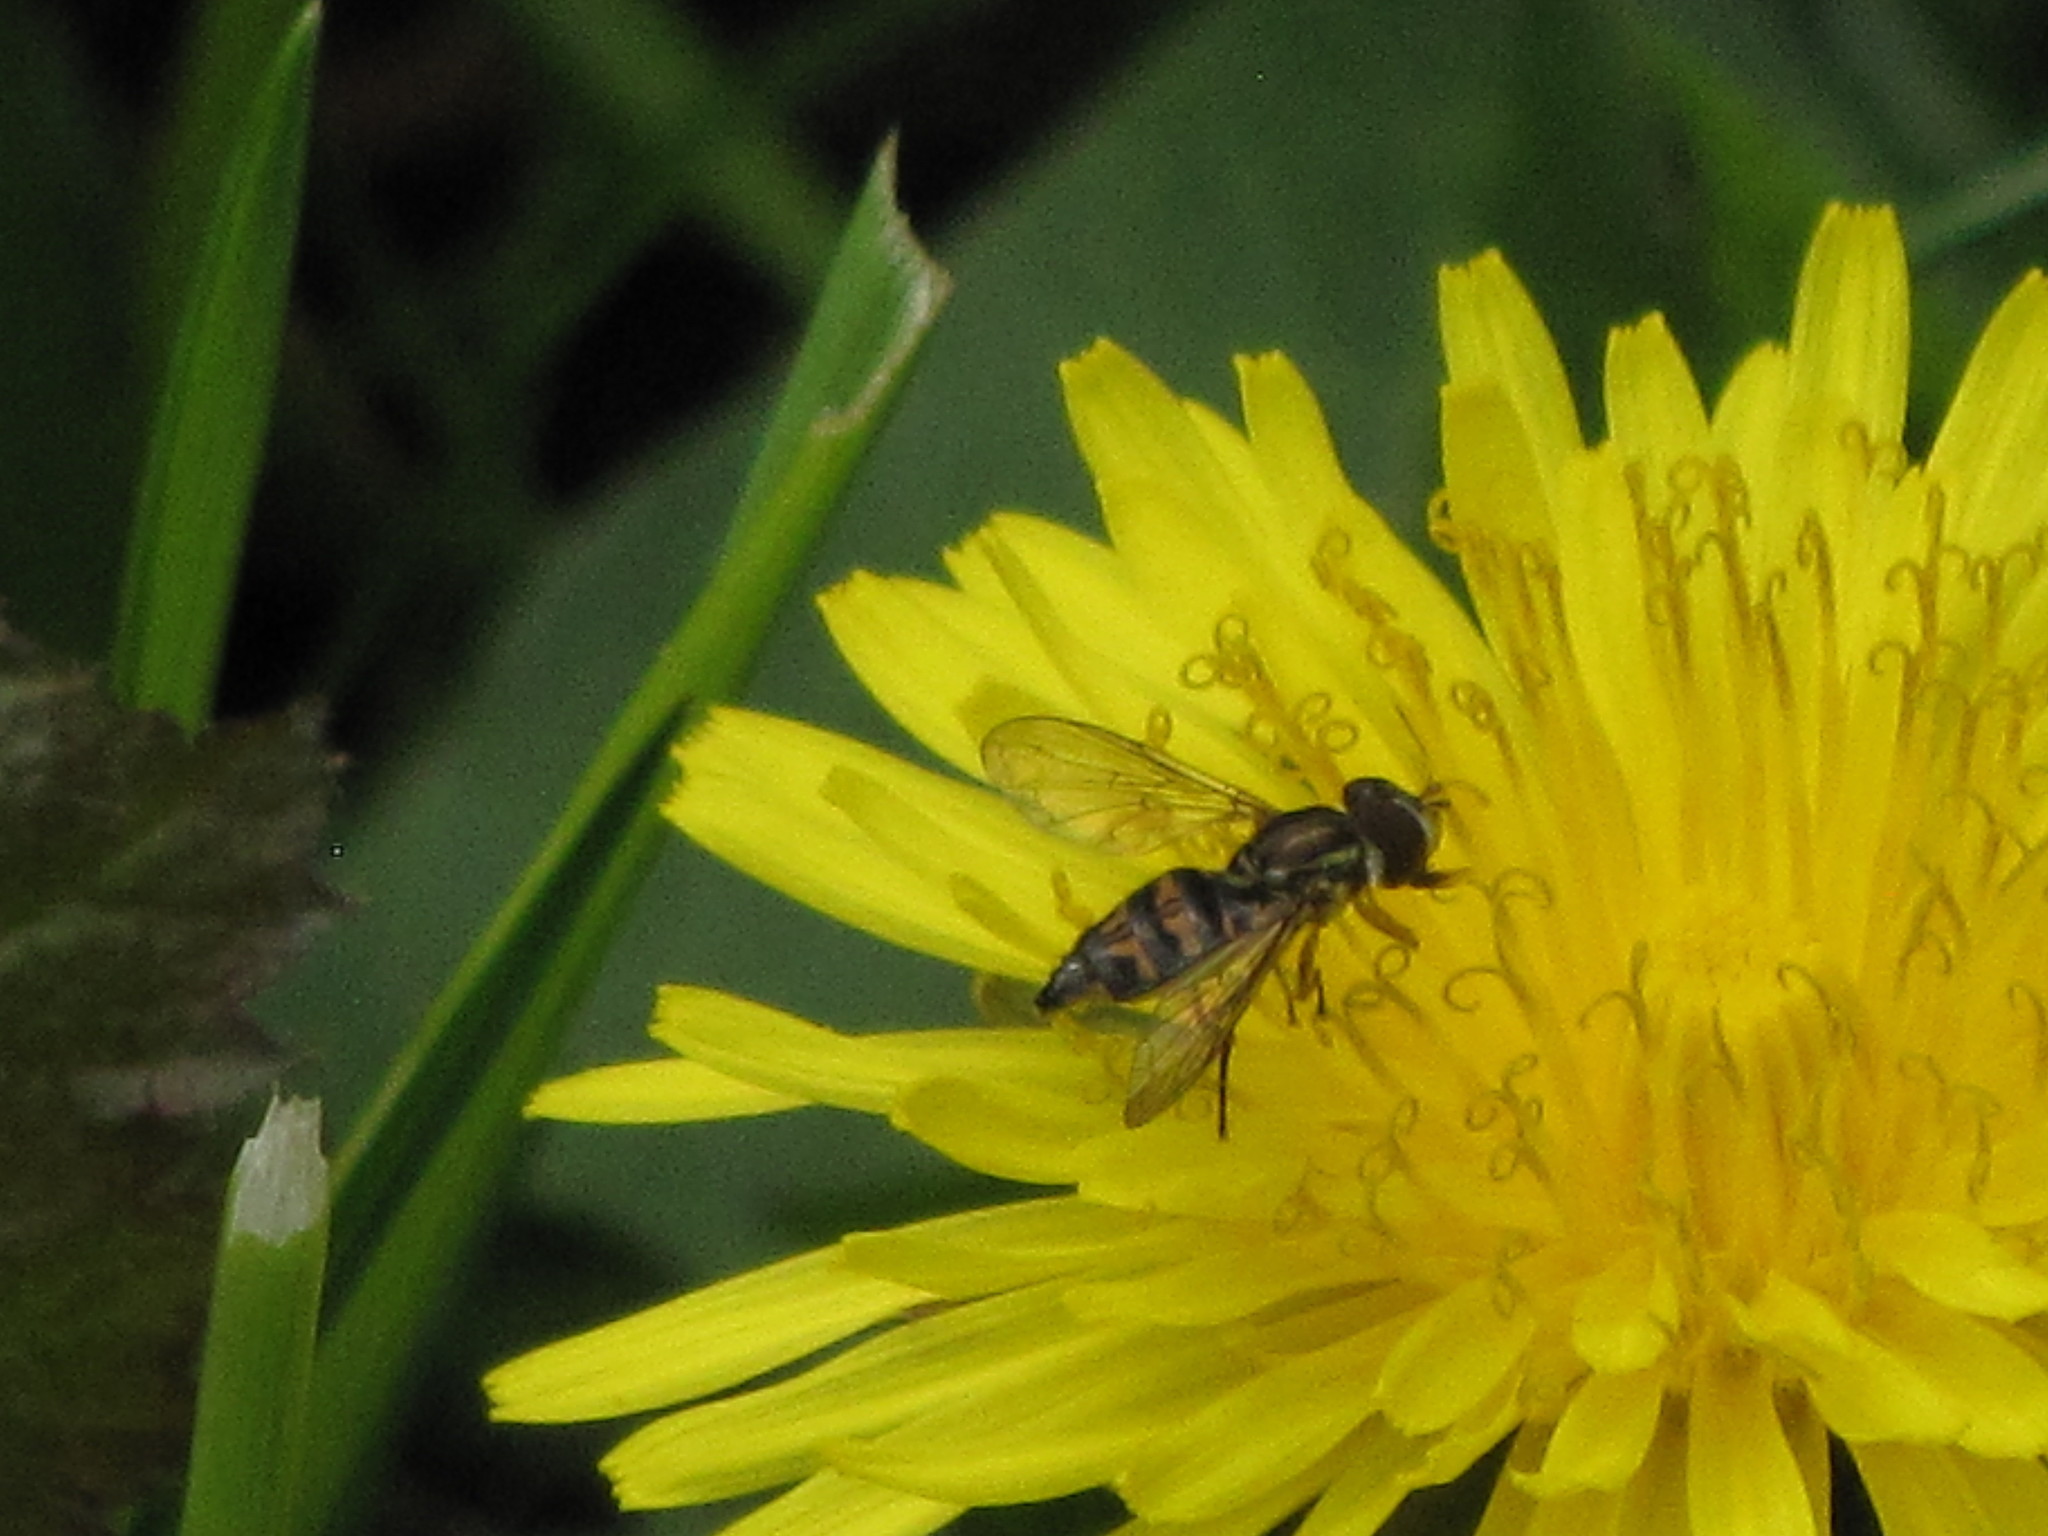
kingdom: Animalia
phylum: Arthropoda
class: Insecta
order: Diptera
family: Syrphidae
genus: Toxomerus
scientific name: Toxomerus occidentalis
